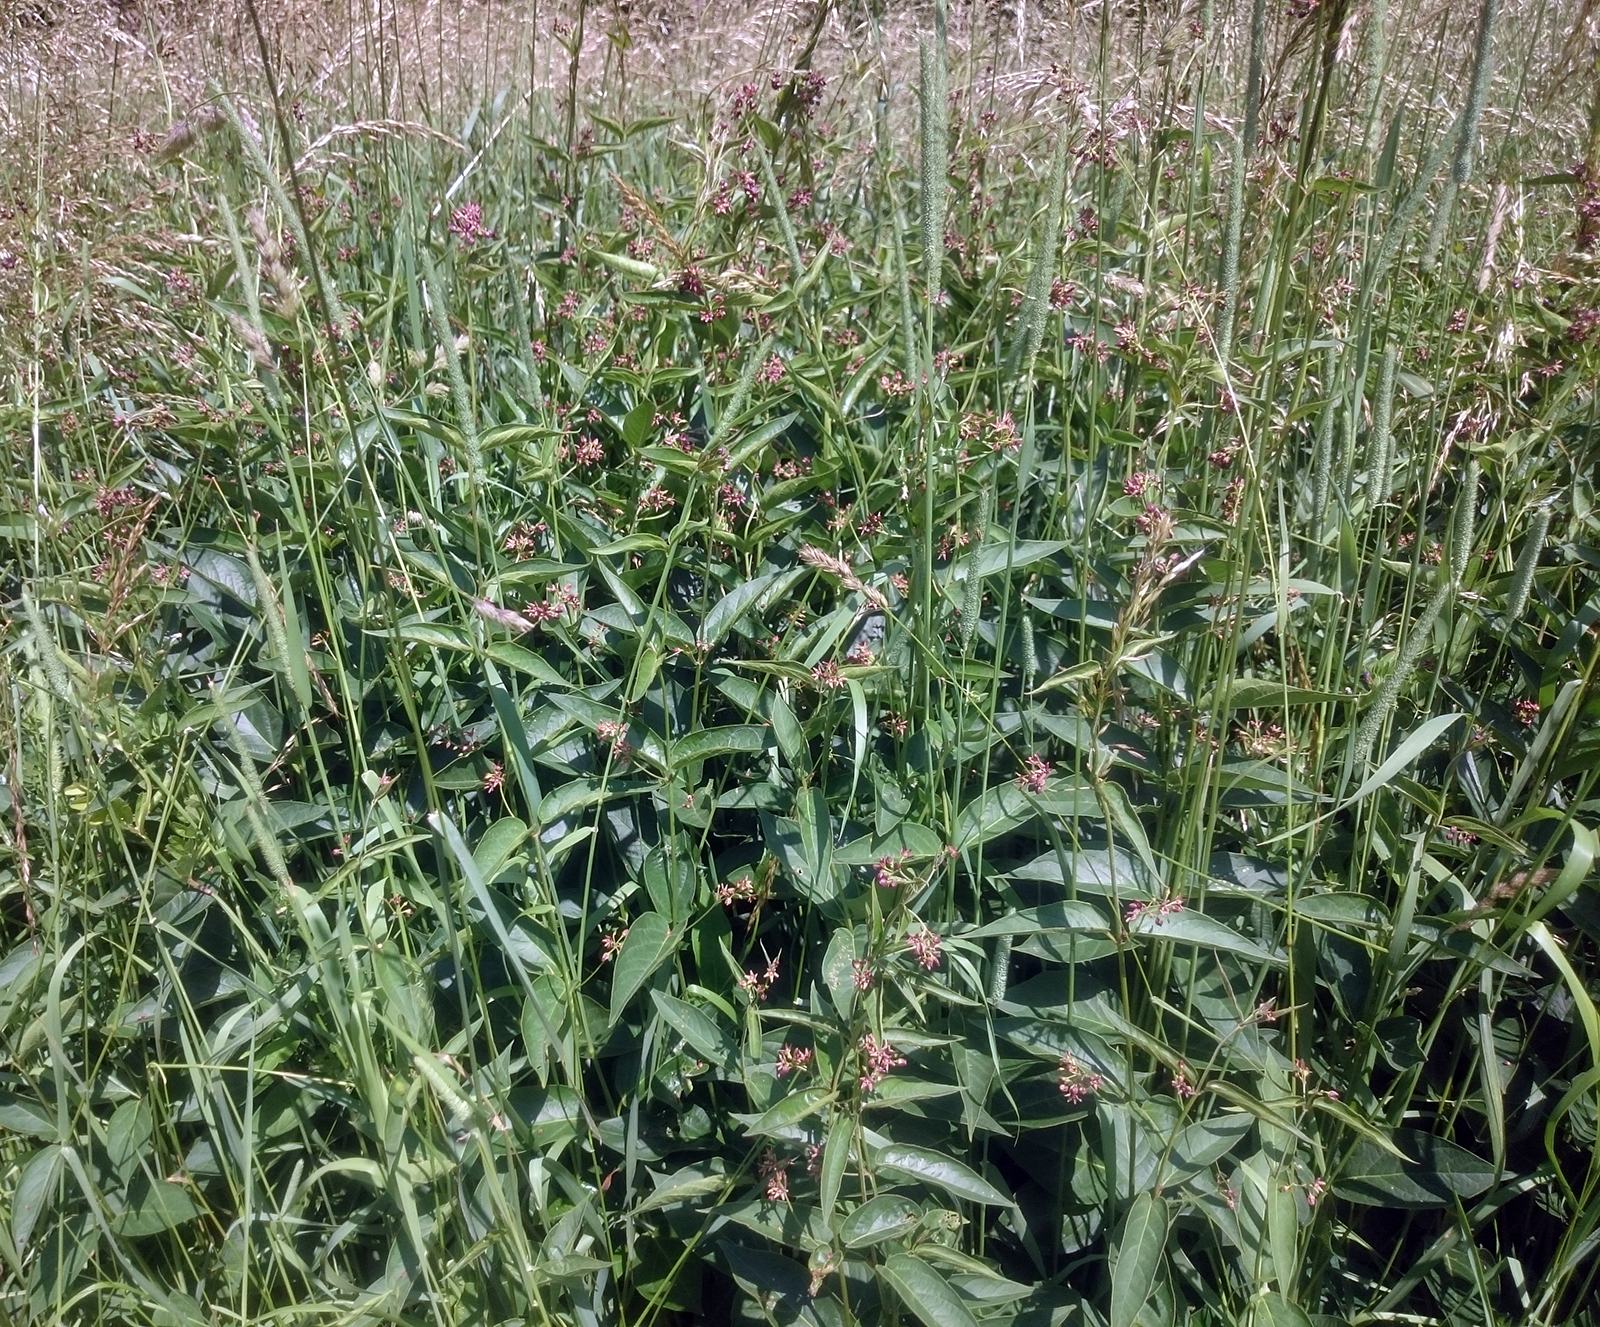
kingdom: Plantae
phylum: Tracheophyta
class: Magnoliopsida
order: Gentianales
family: Apocynaceae
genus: Vincetoxicum
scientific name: Vincetoxicum rossicum
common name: Dog-strangling vine
